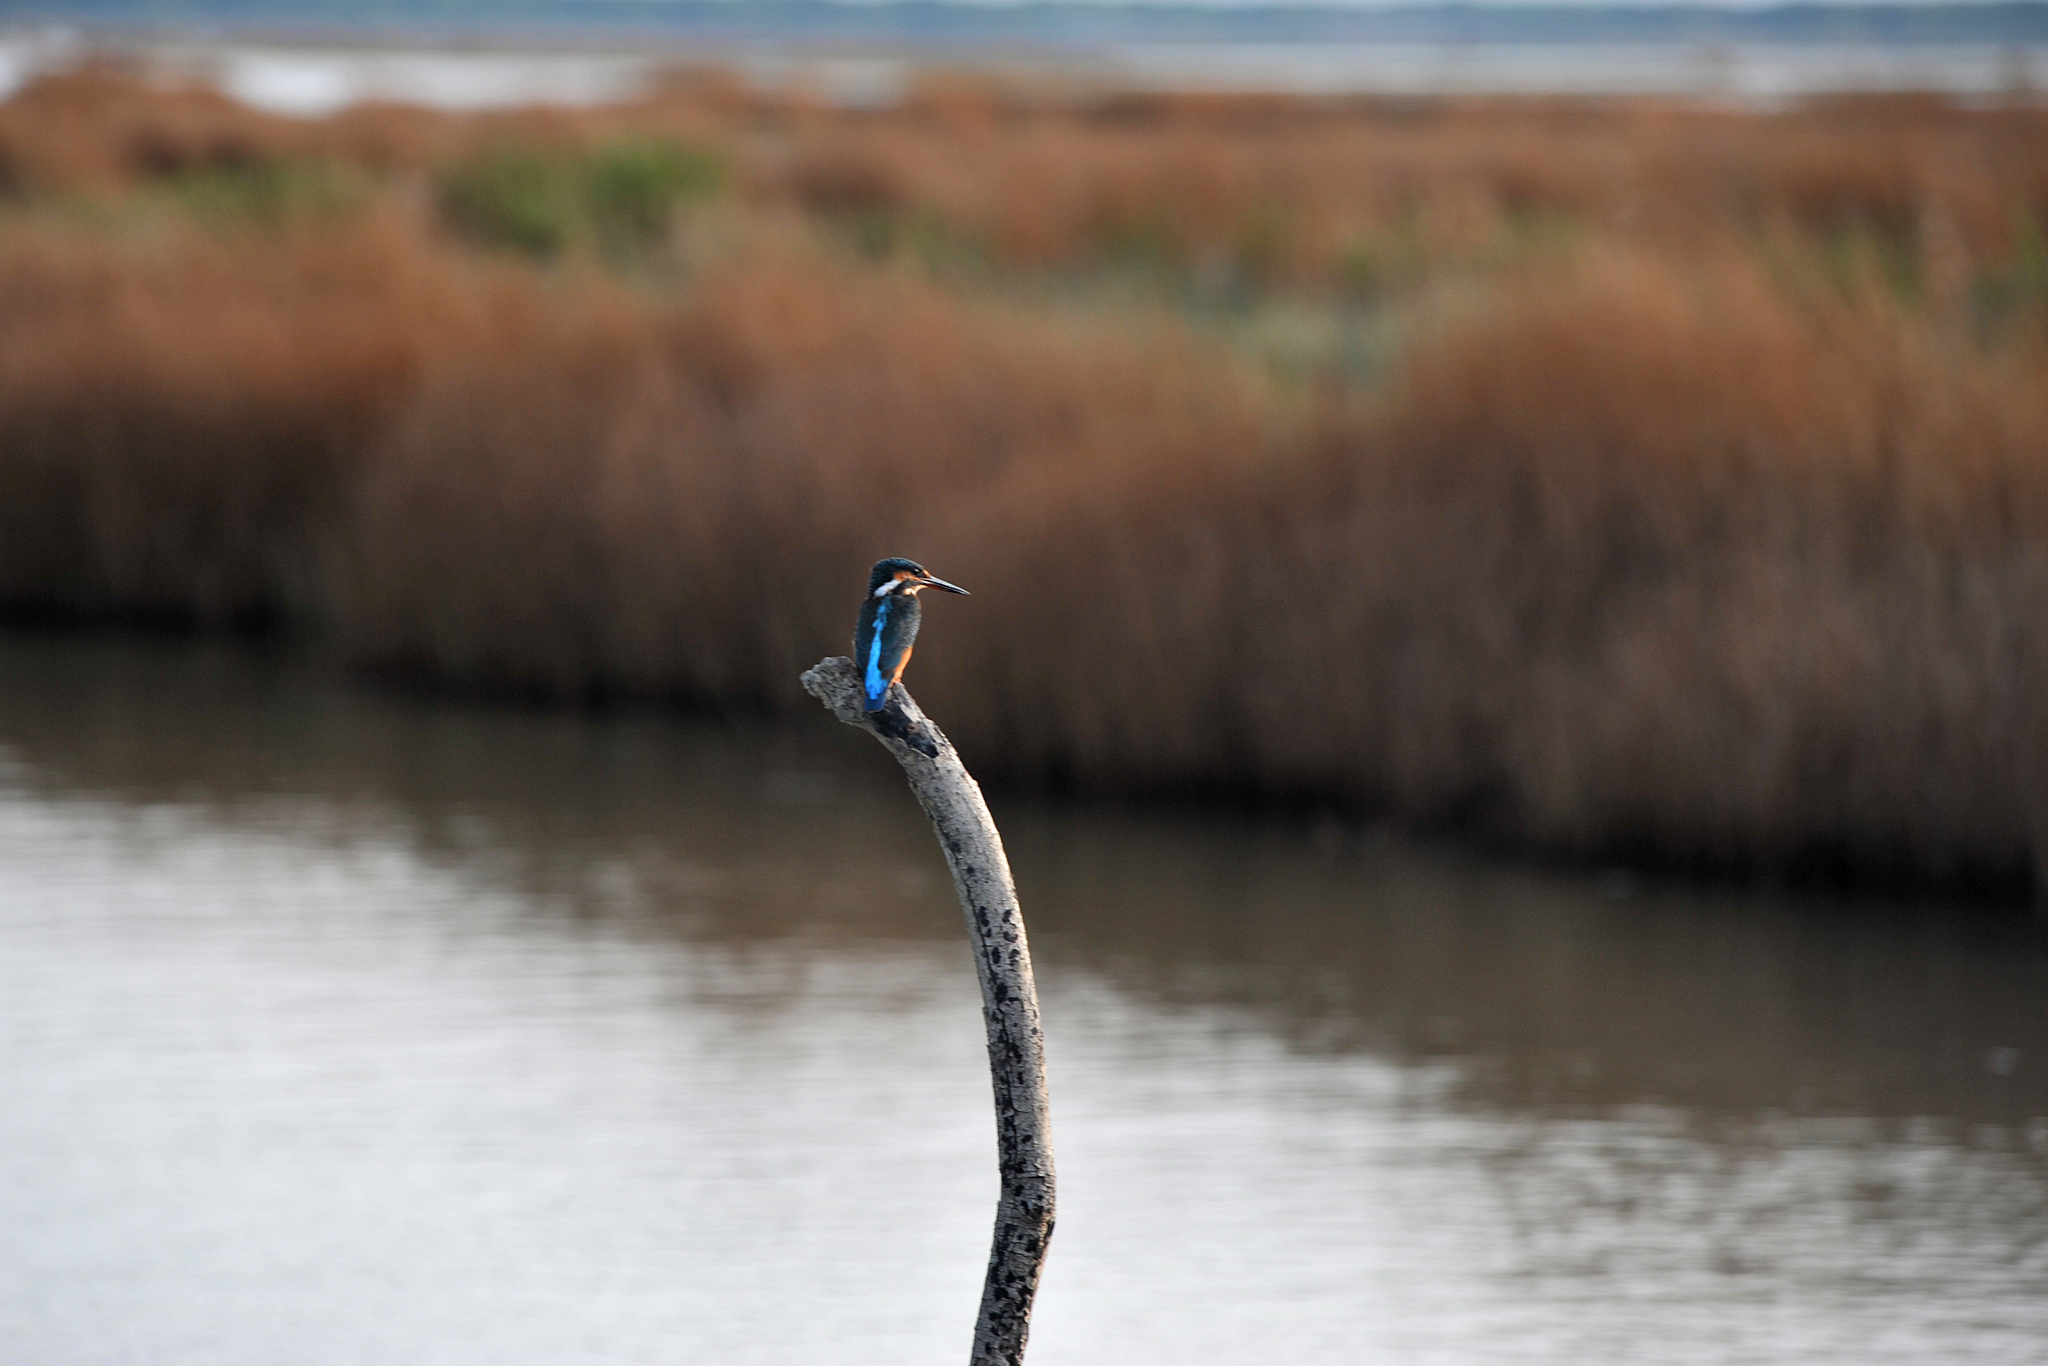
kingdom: Animalia
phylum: Chordata
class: Aves
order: Coraciiformes
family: Alcedinidae
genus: Alcedo
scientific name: Alcedo atthis
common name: Common kingfisher
